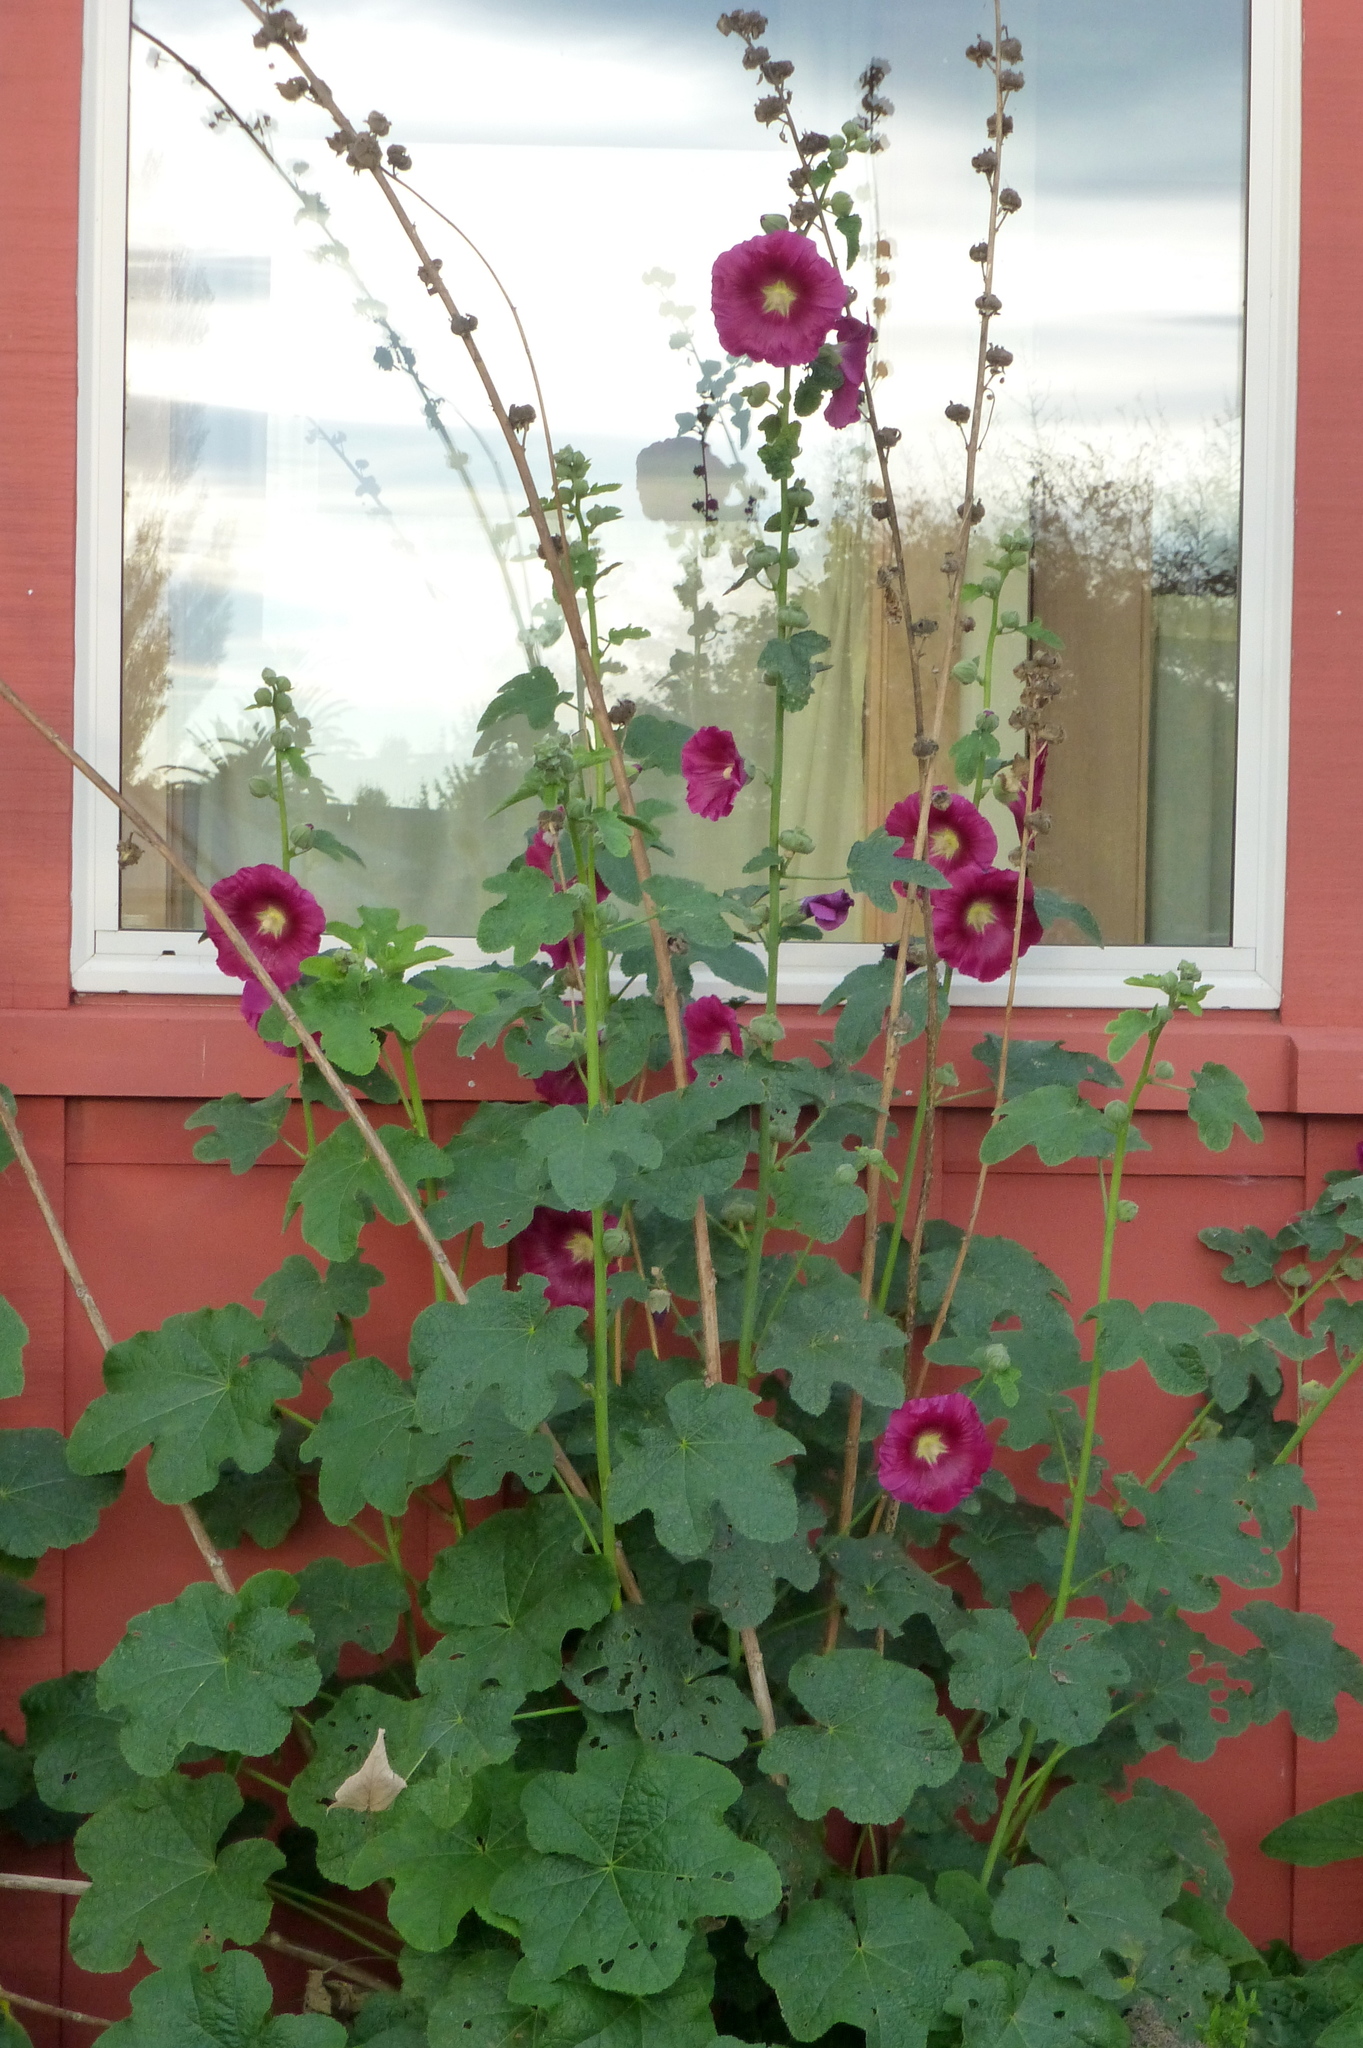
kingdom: Plantae
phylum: Tracheophyta
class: Magnoliopsida
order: Malvales
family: Malvaceae
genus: Alcea
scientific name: Alcea rosea
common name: Hollyhock
